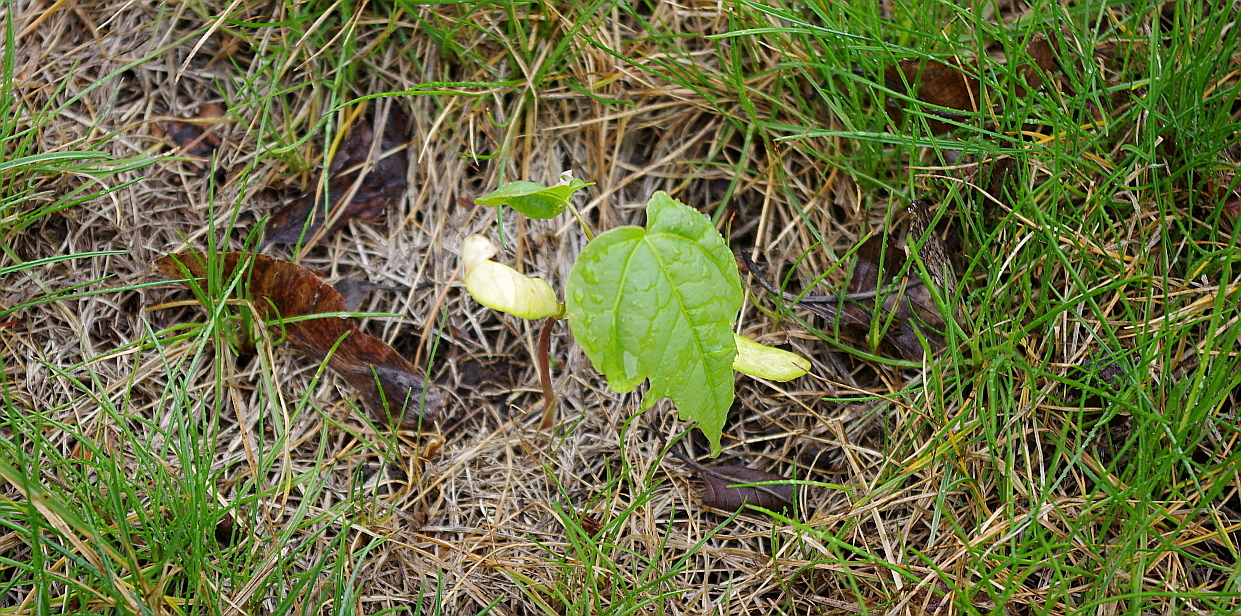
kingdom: Plantae
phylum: Tracheophyta
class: Magnoliopsida
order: Sapindales
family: Sapindaceae
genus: Acer
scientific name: Acer platanoides
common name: Norway maple
